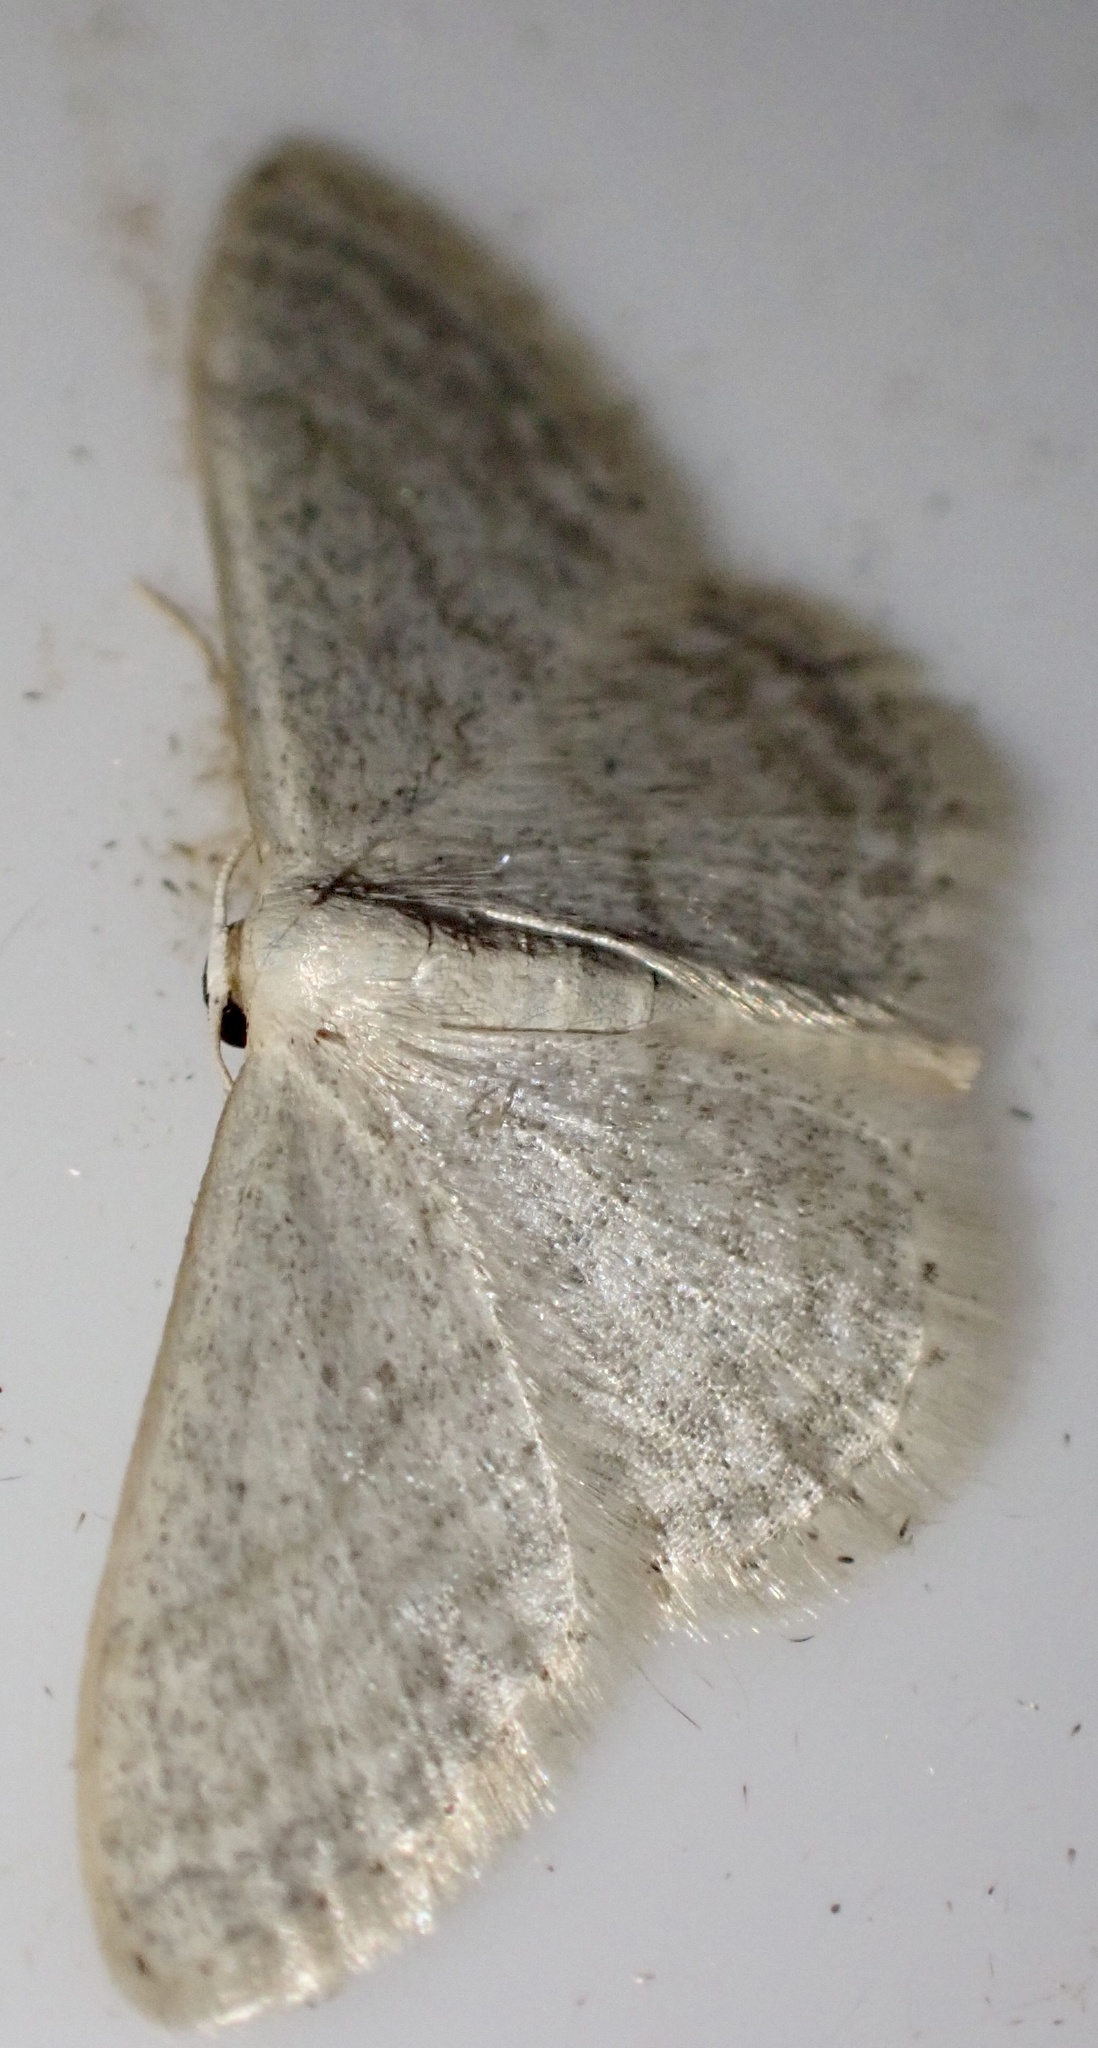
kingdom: Animalia
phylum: Arthropoda
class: Insecta
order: Lepidoptera
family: Geometridae
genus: Idaea
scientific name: Idaea subsericeata
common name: Satin wave
